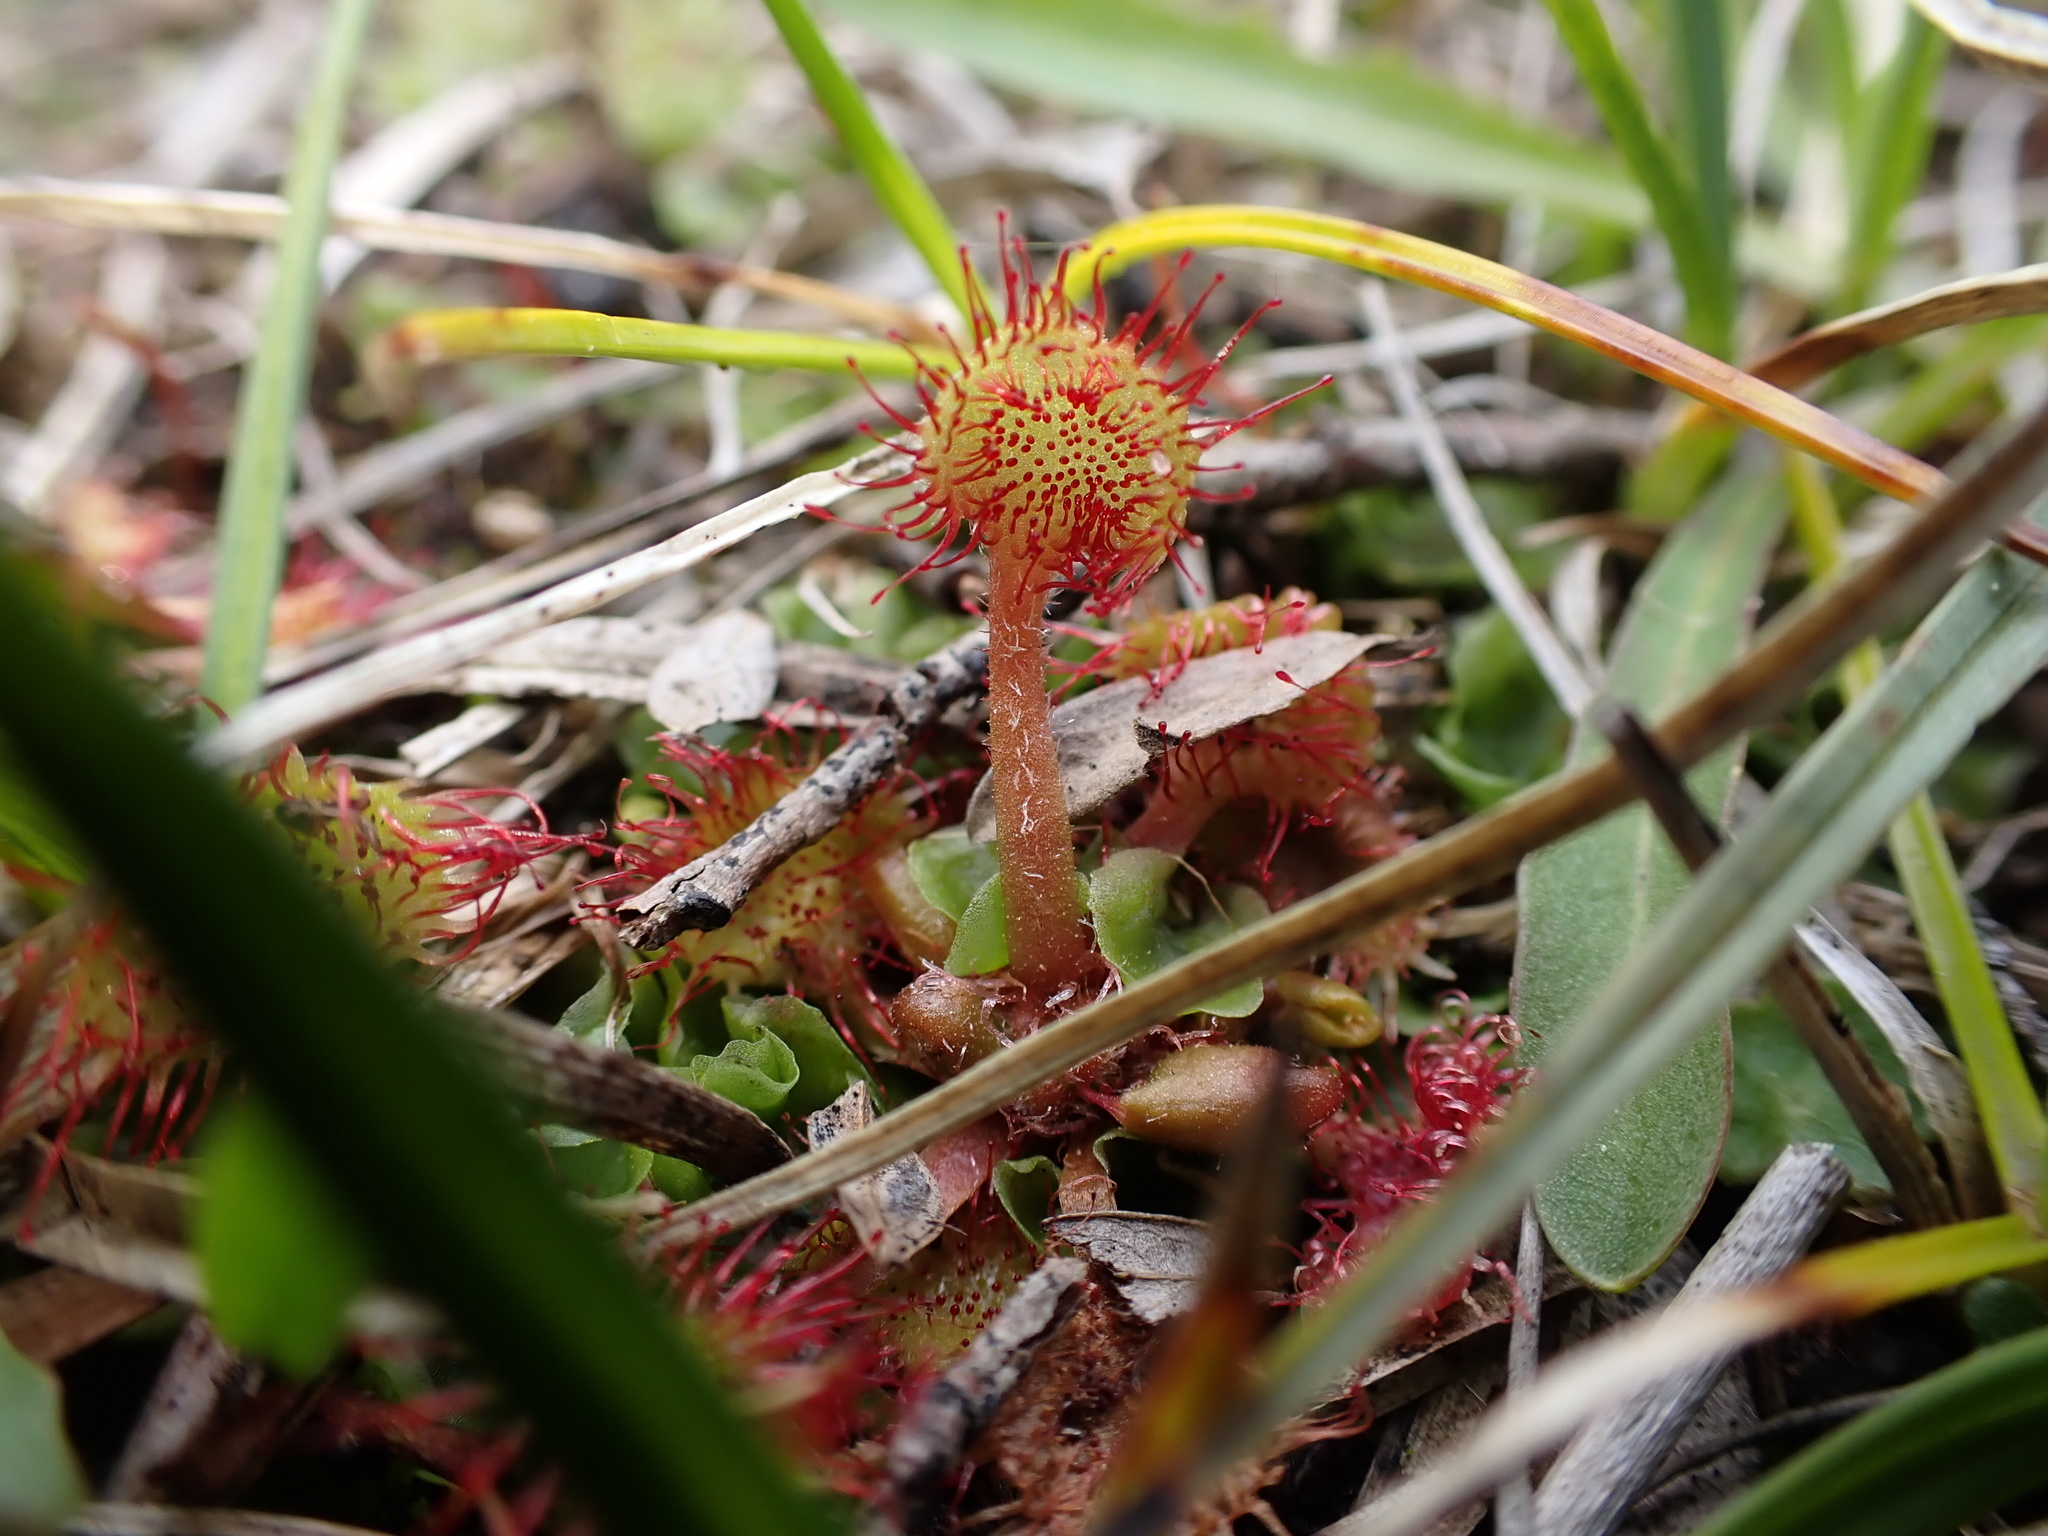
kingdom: Plantae
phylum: Tracheophyta
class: Magnoliopsida
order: Caryophyllales
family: Droseraceae
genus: Drosera
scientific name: Drosera rotundifolia
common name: Round-leaved sundew
